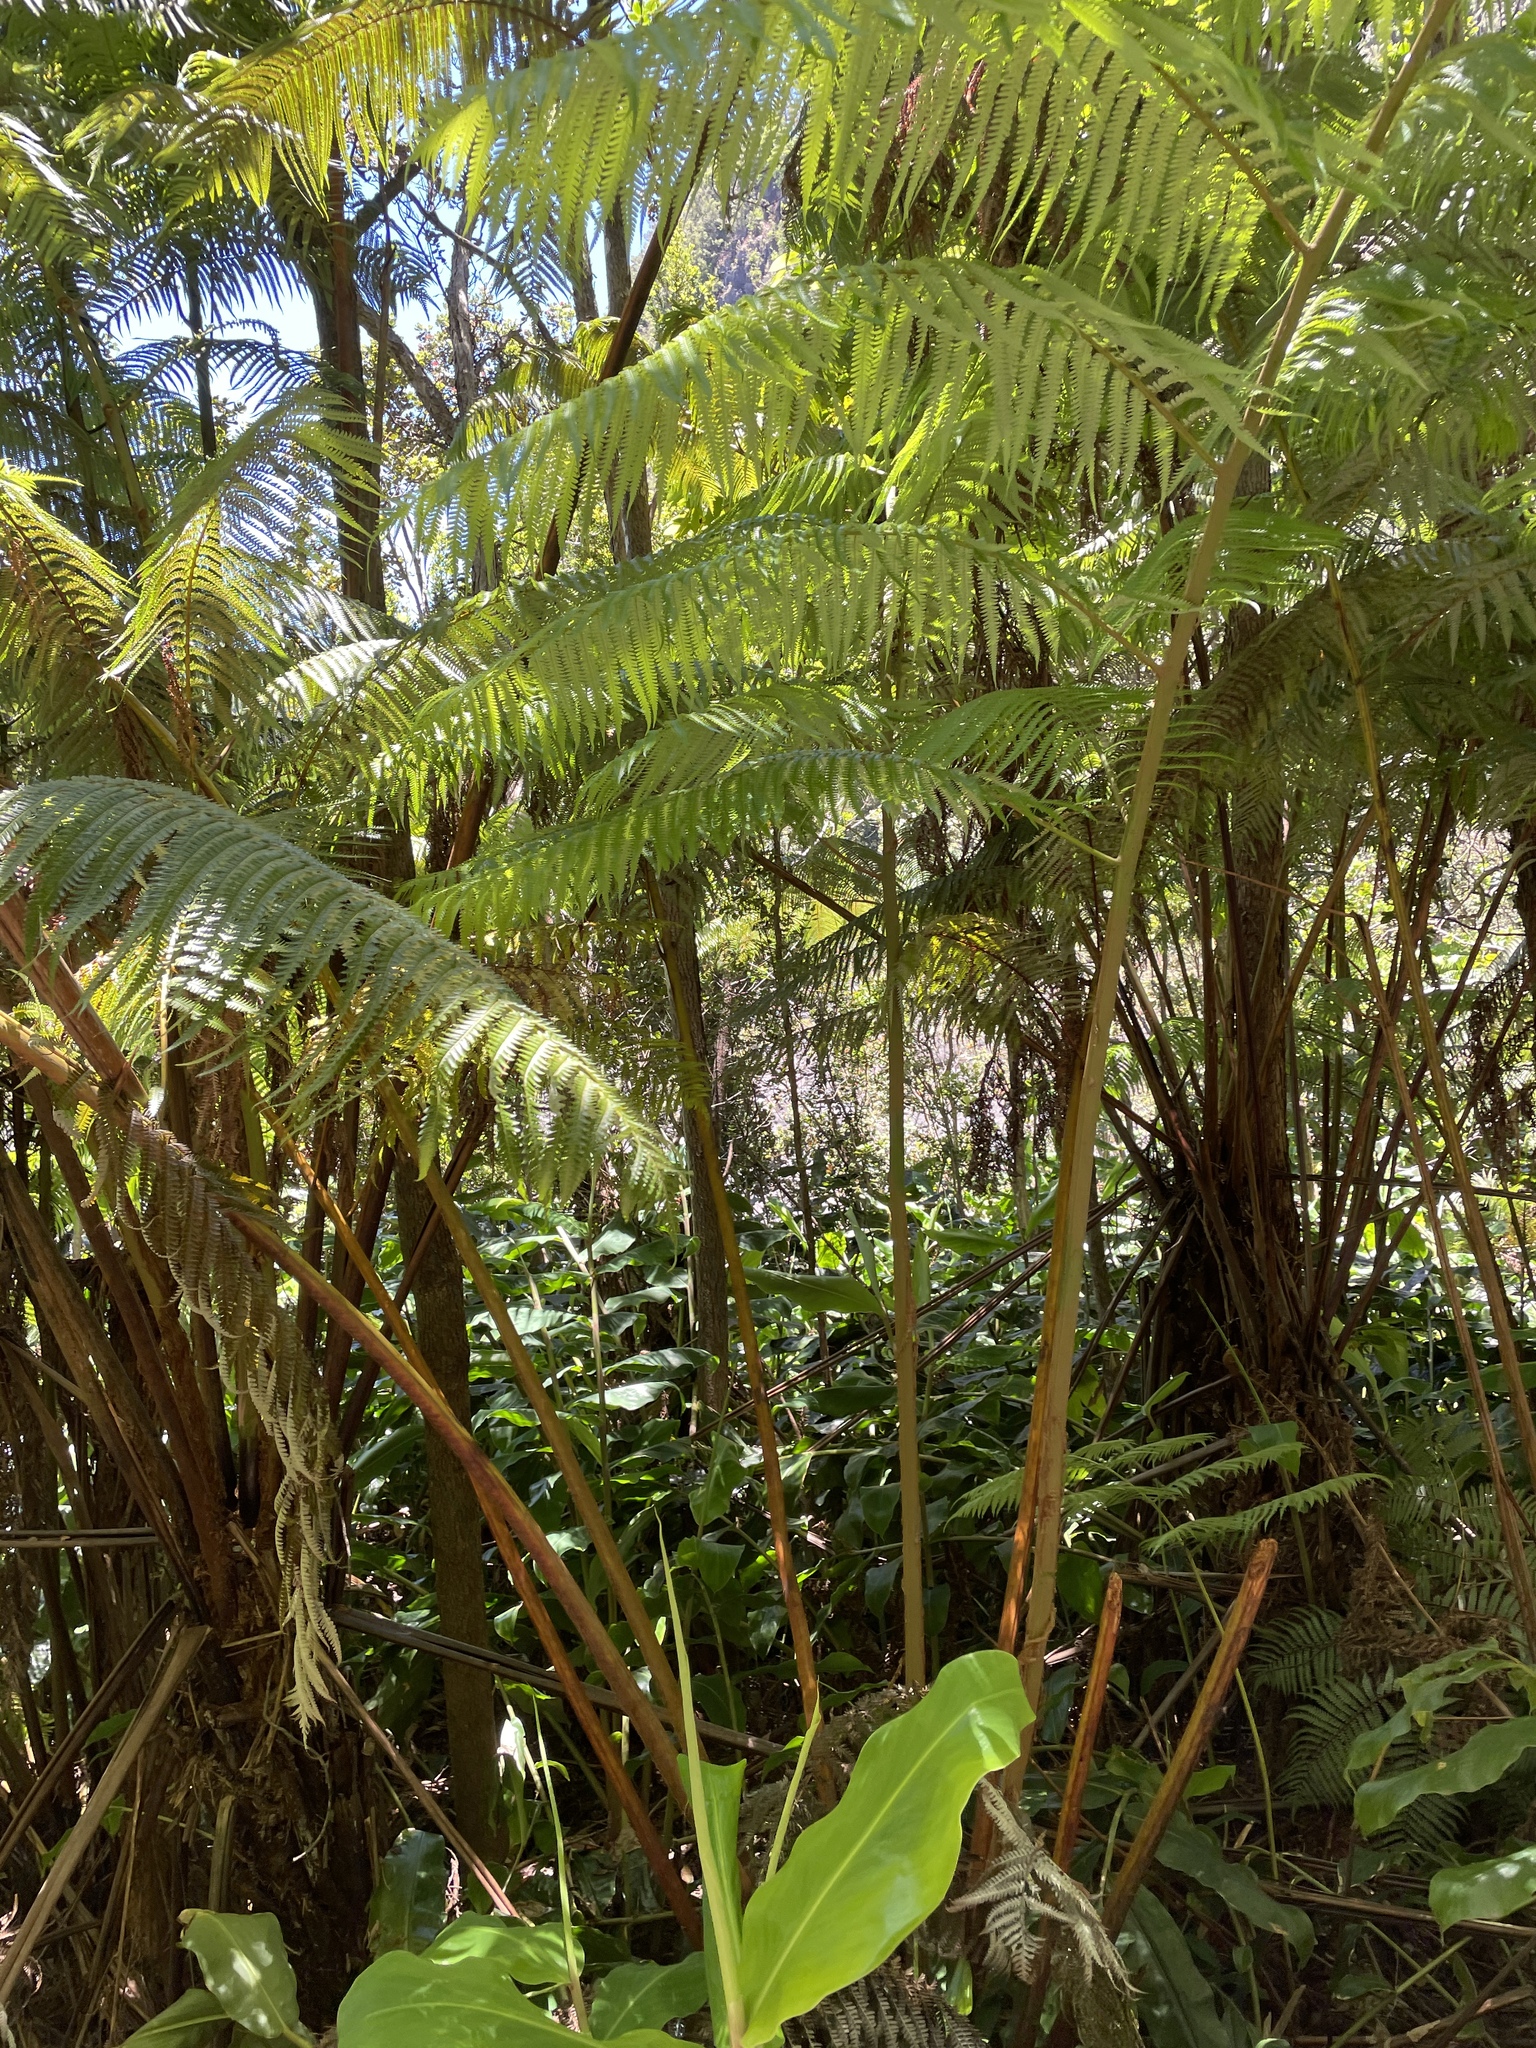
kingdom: Plantae
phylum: Tracheophyta
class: Polypodiopsida
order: Cyatheales
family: Cibotiaceae
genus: Cibotium
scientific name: Cibotium glaucum
